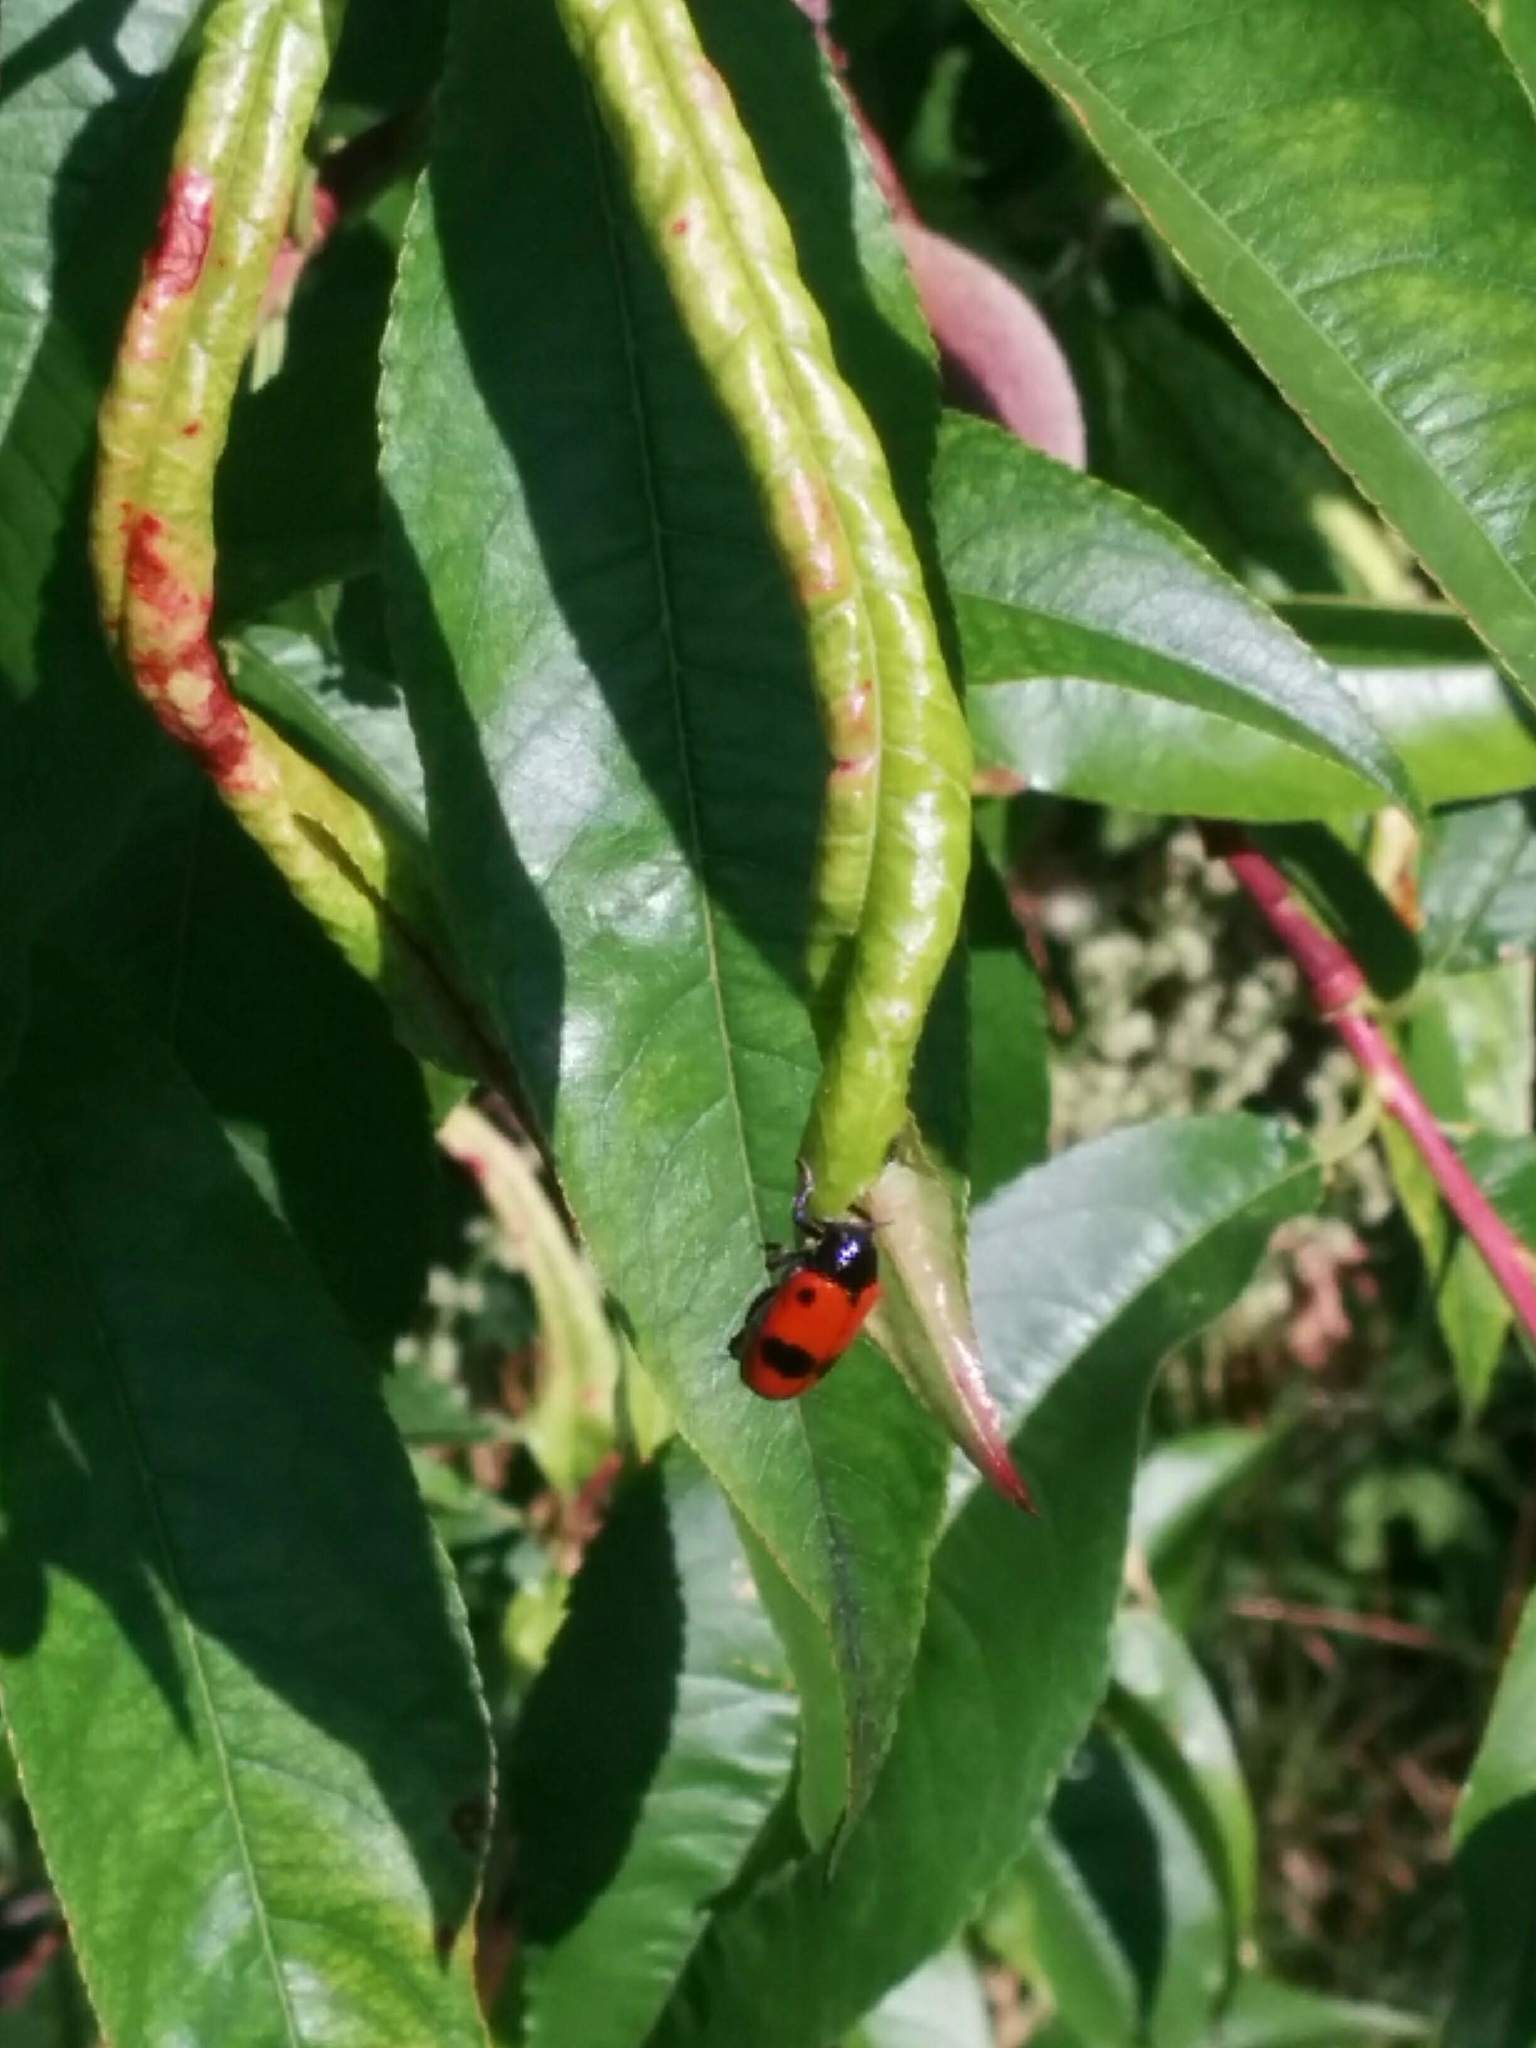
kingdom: Animalia
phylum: Arthropoda
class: Insecta
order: Coleoptera
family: Chrysomelidae
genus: Clytra
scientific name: Clytra laeviuscula
